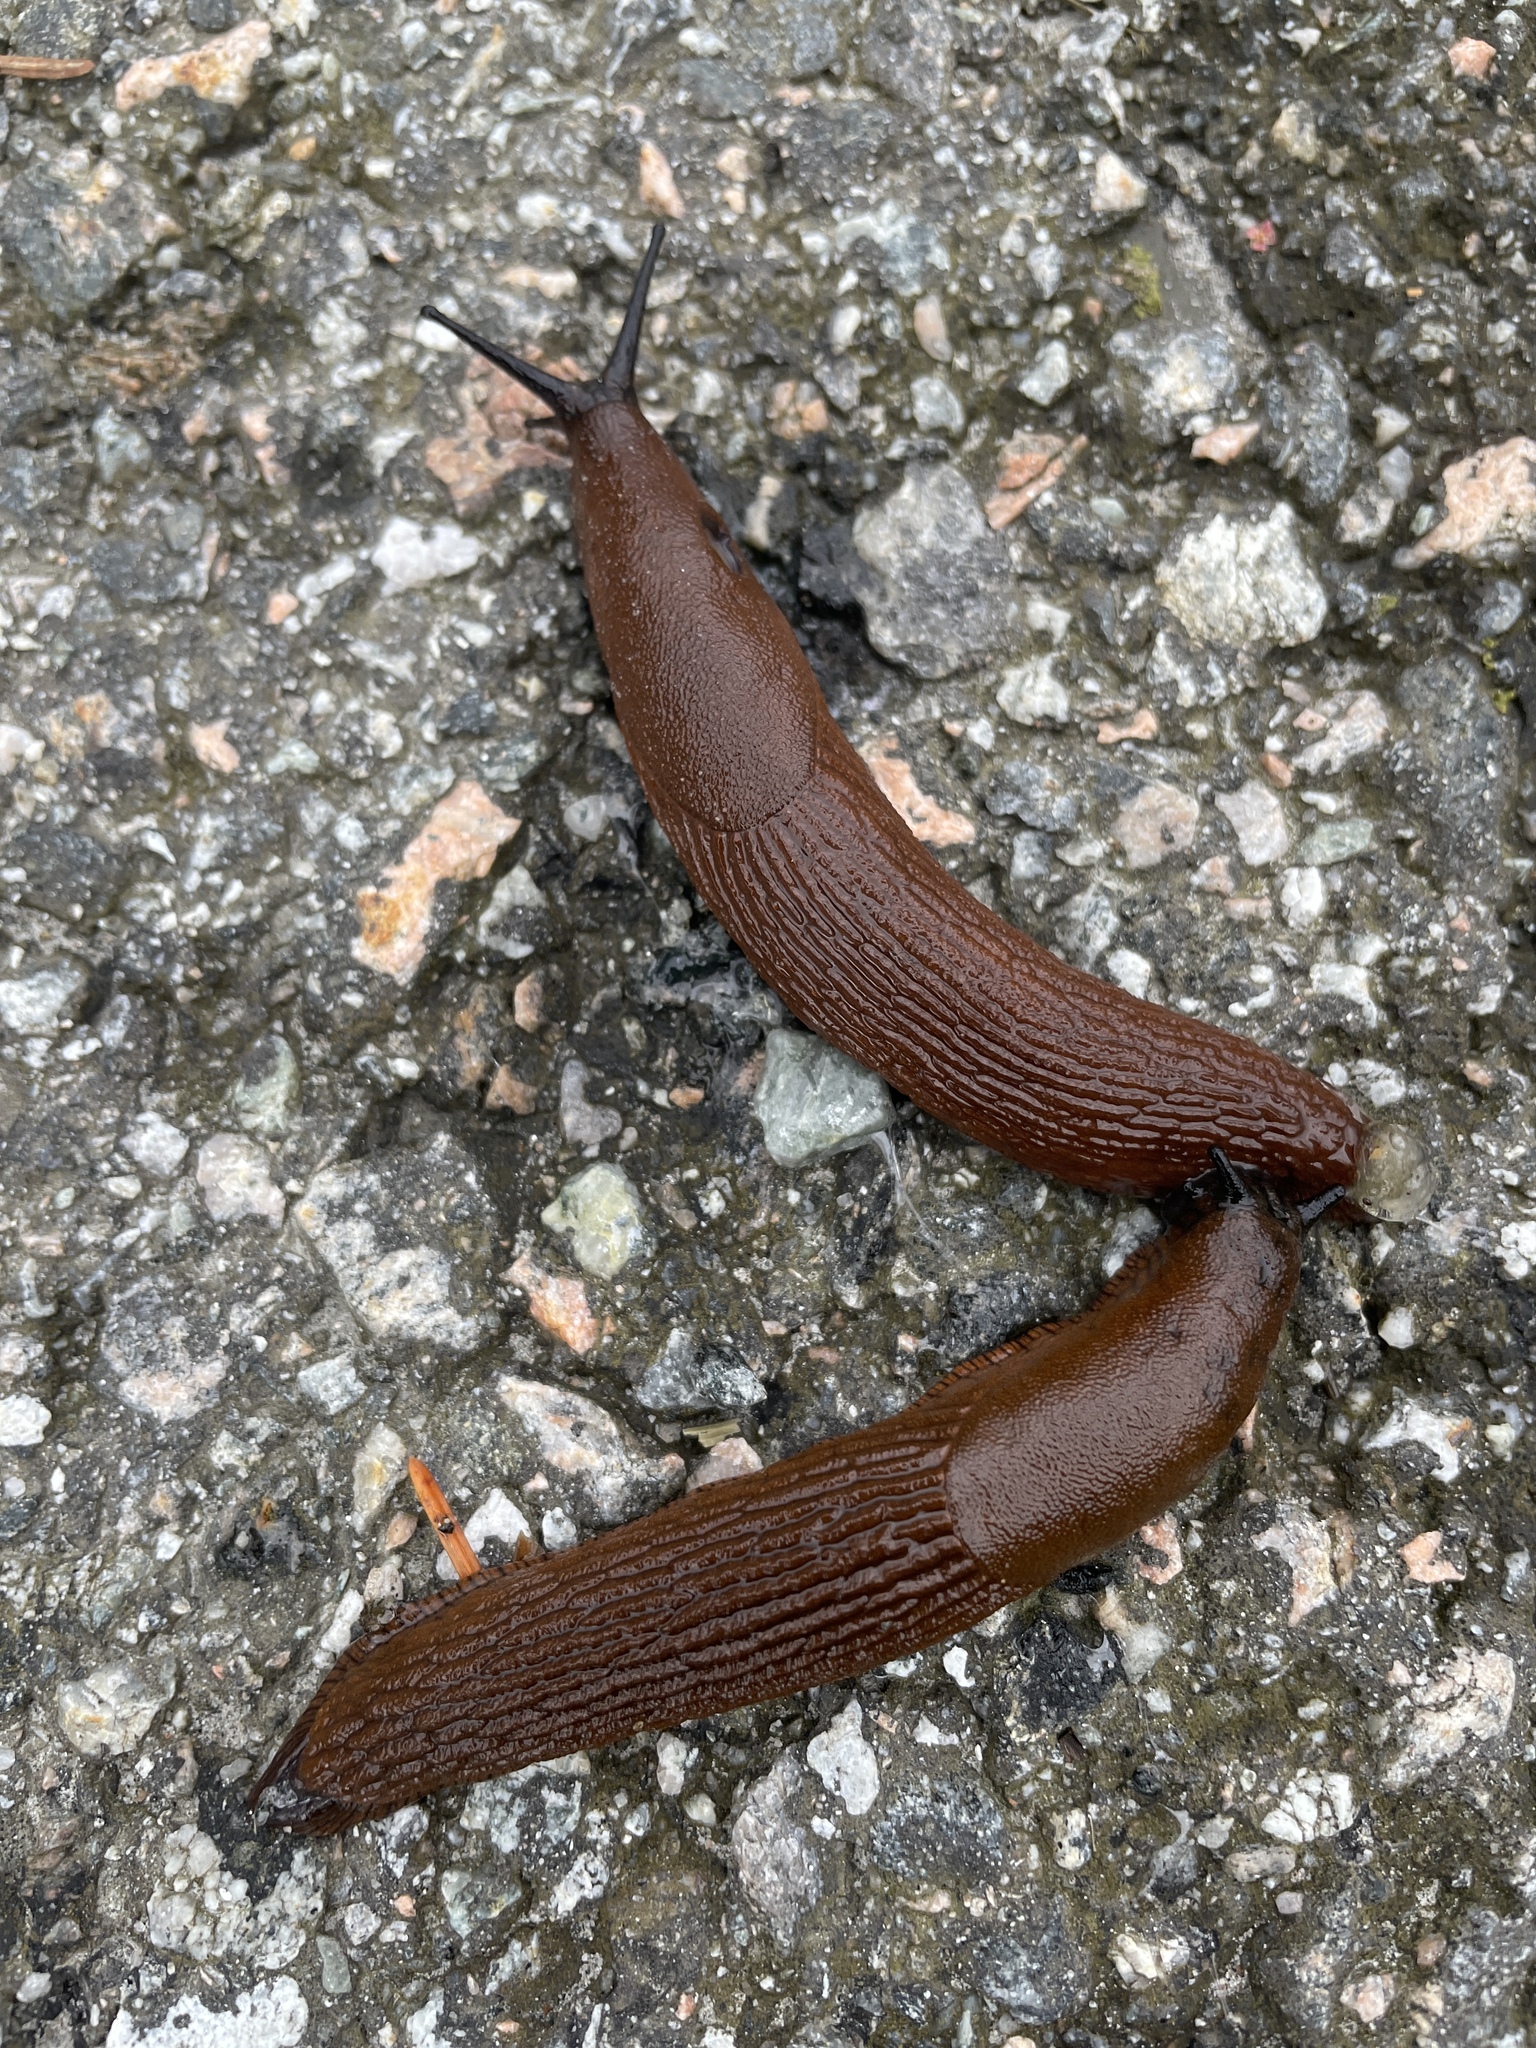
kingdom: Animalia
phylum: Mollusca
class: Gastropoda
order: Stylommatophora
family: Arionidae
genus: Arion
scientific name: Arion vulgaris
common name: Lusitanian slug
